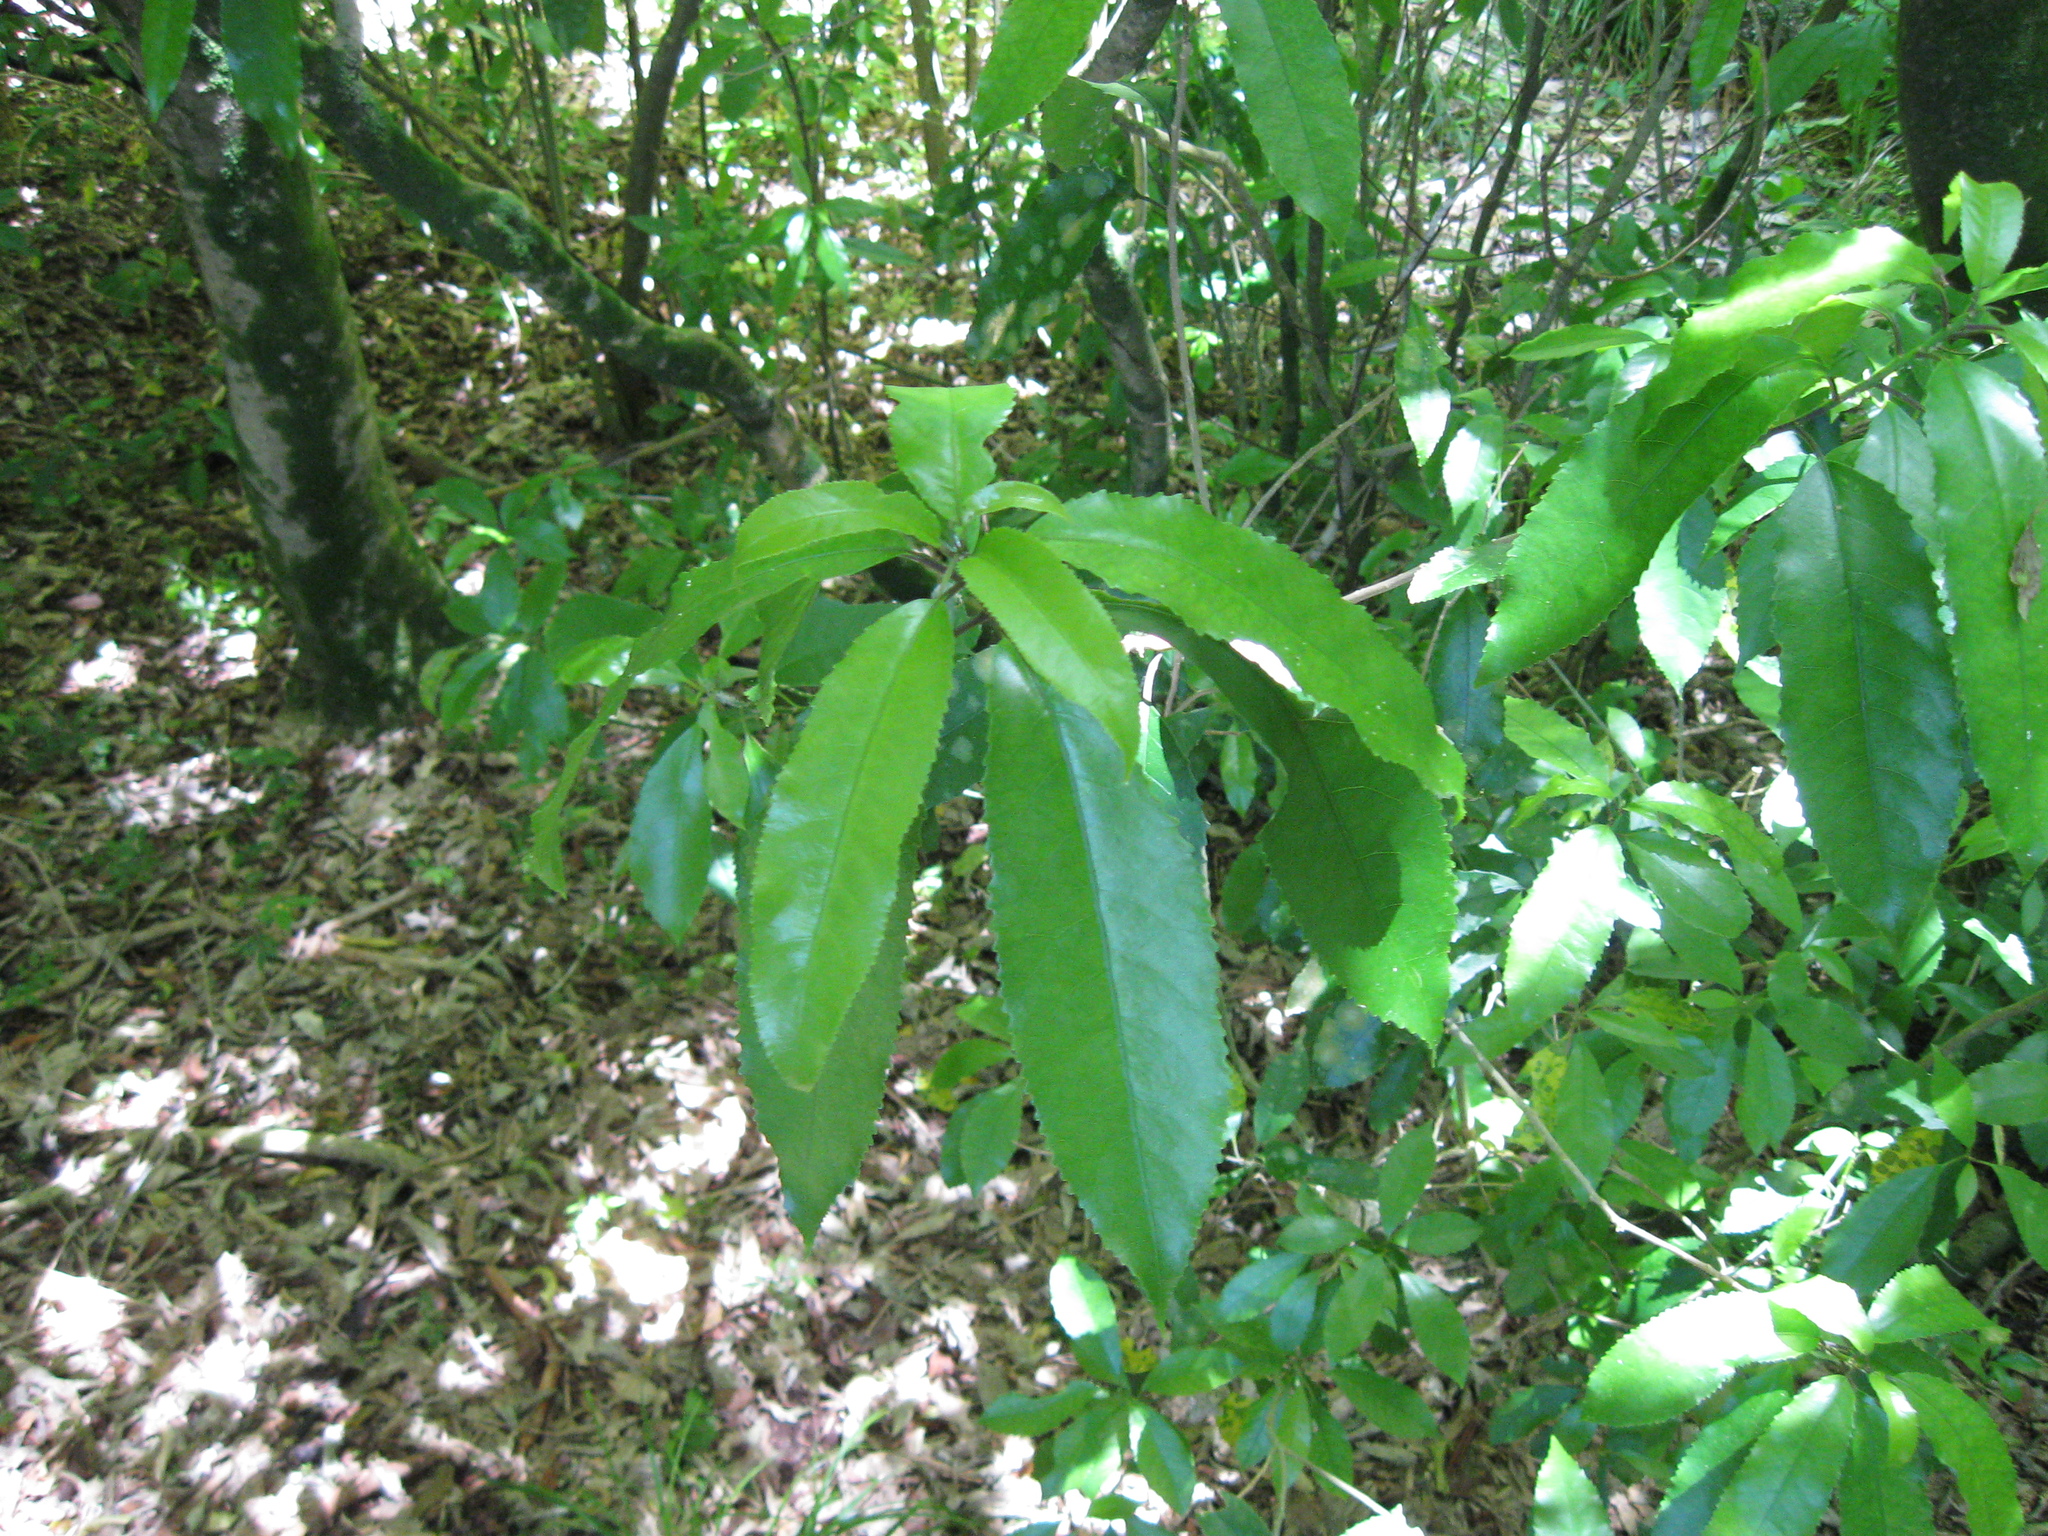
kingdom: Plantae
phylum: Tracheophyta
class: Magnoliopsida
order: Malpighiales
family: Violaceae
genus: Melicytus
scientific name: Melicytus ramiflorus
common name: Mahoe
